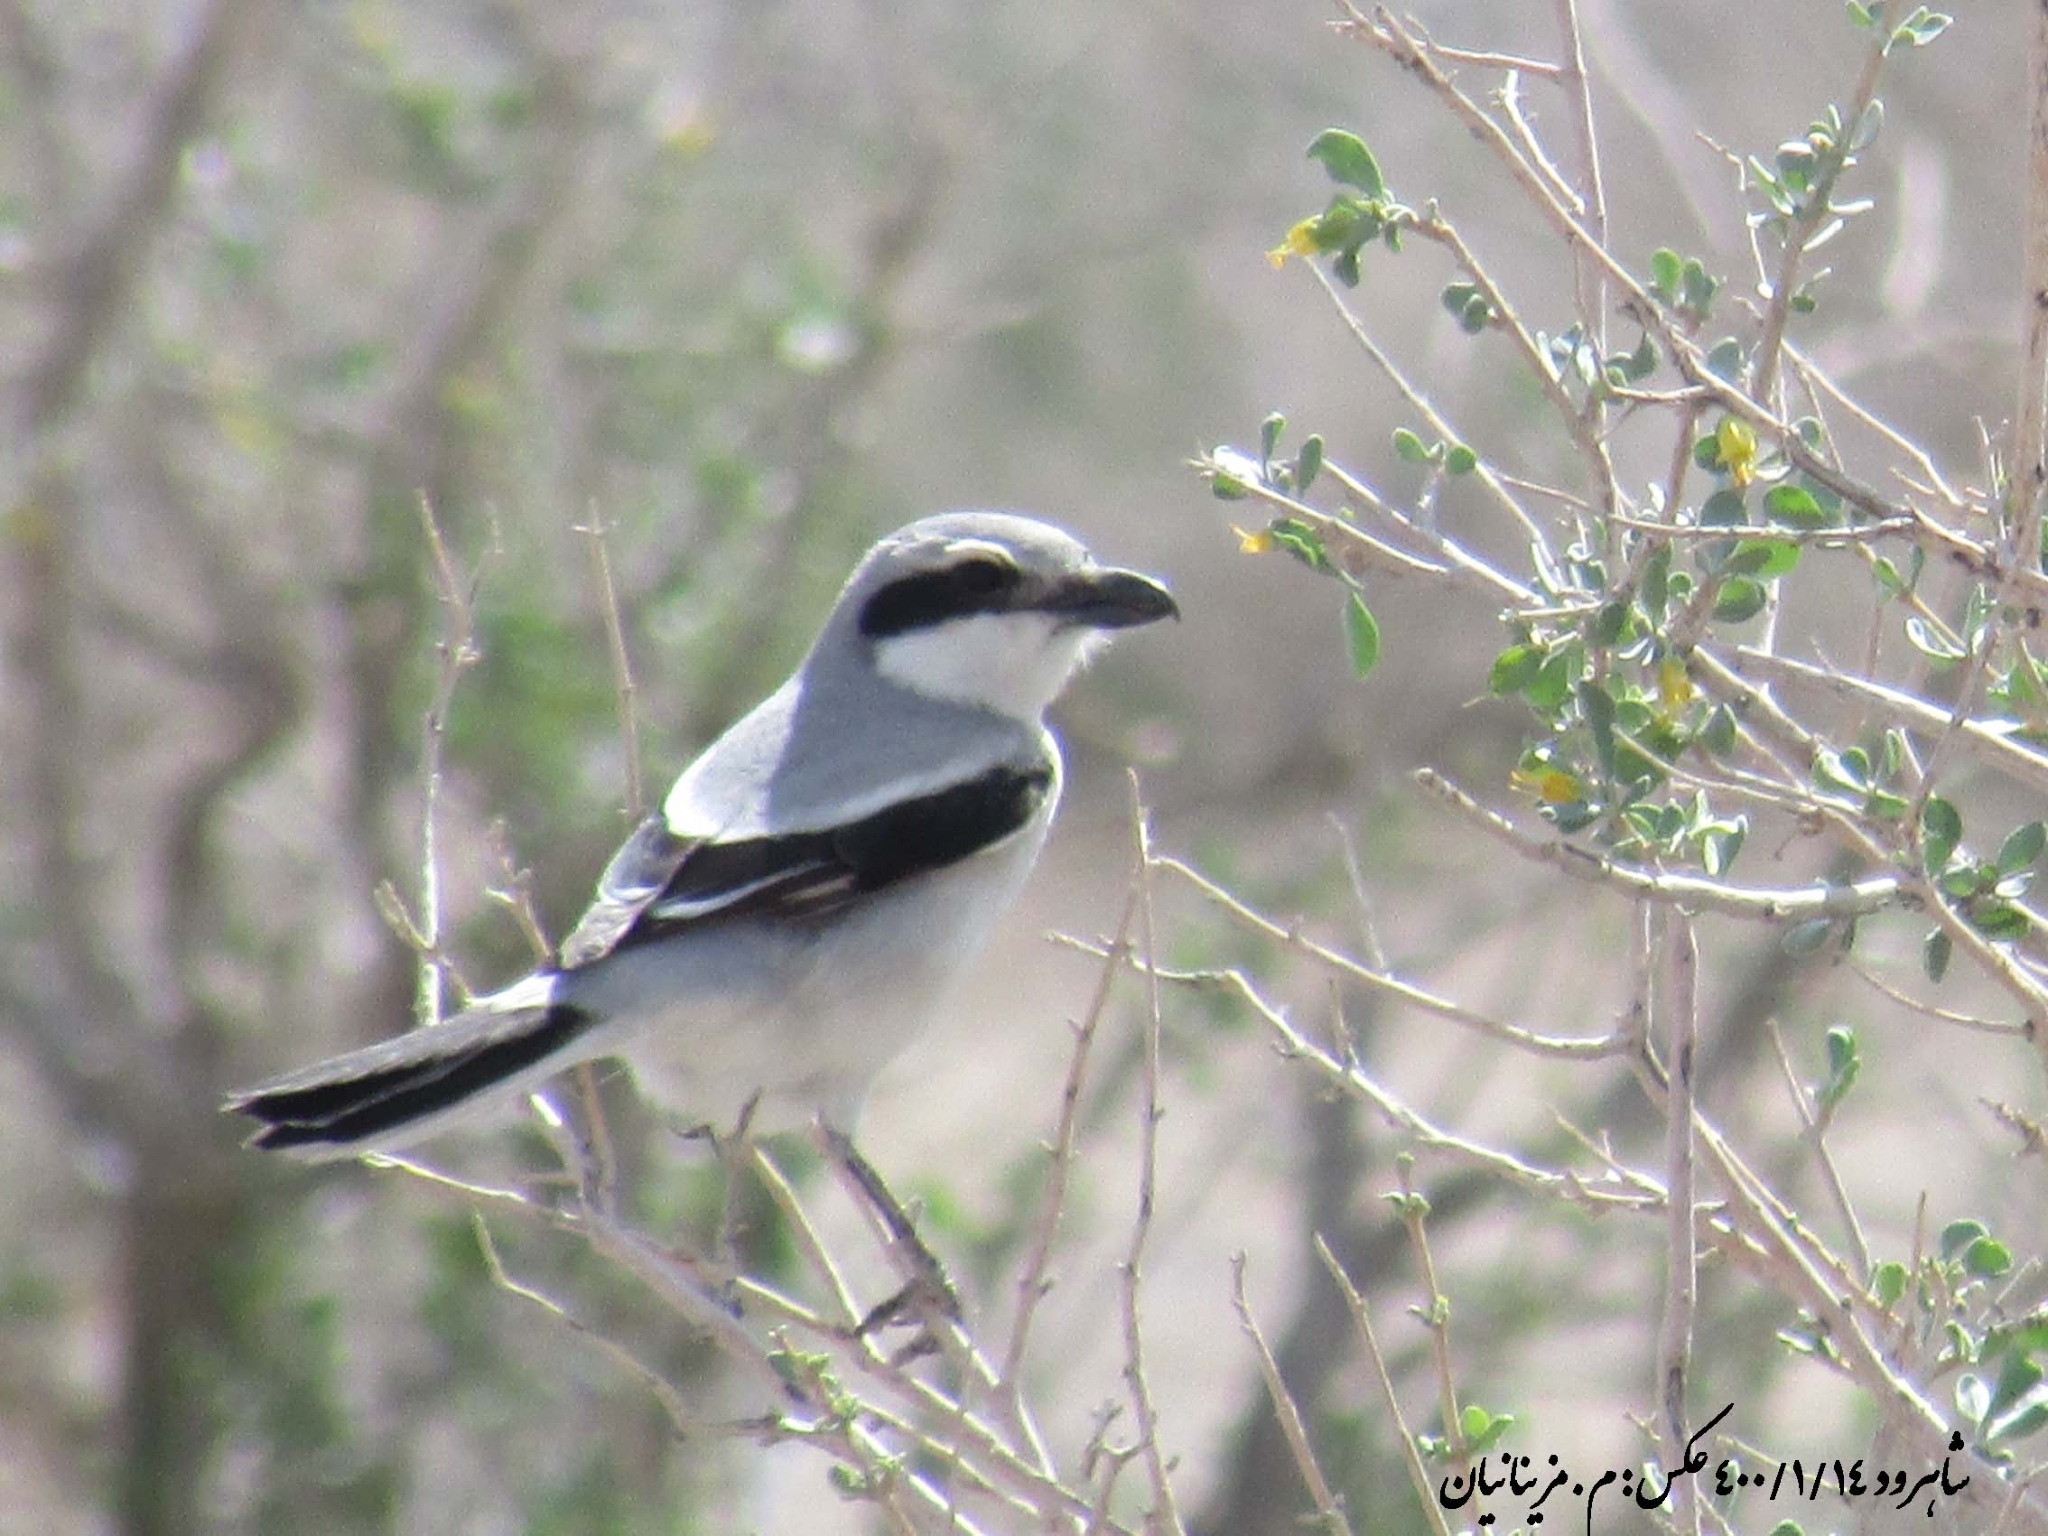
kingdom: Animalia
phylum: Chordata
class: Aves
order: Passeriformes
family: Laniidae
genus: Lanius
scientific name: Lanius excubitor
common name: Great grey shrike
